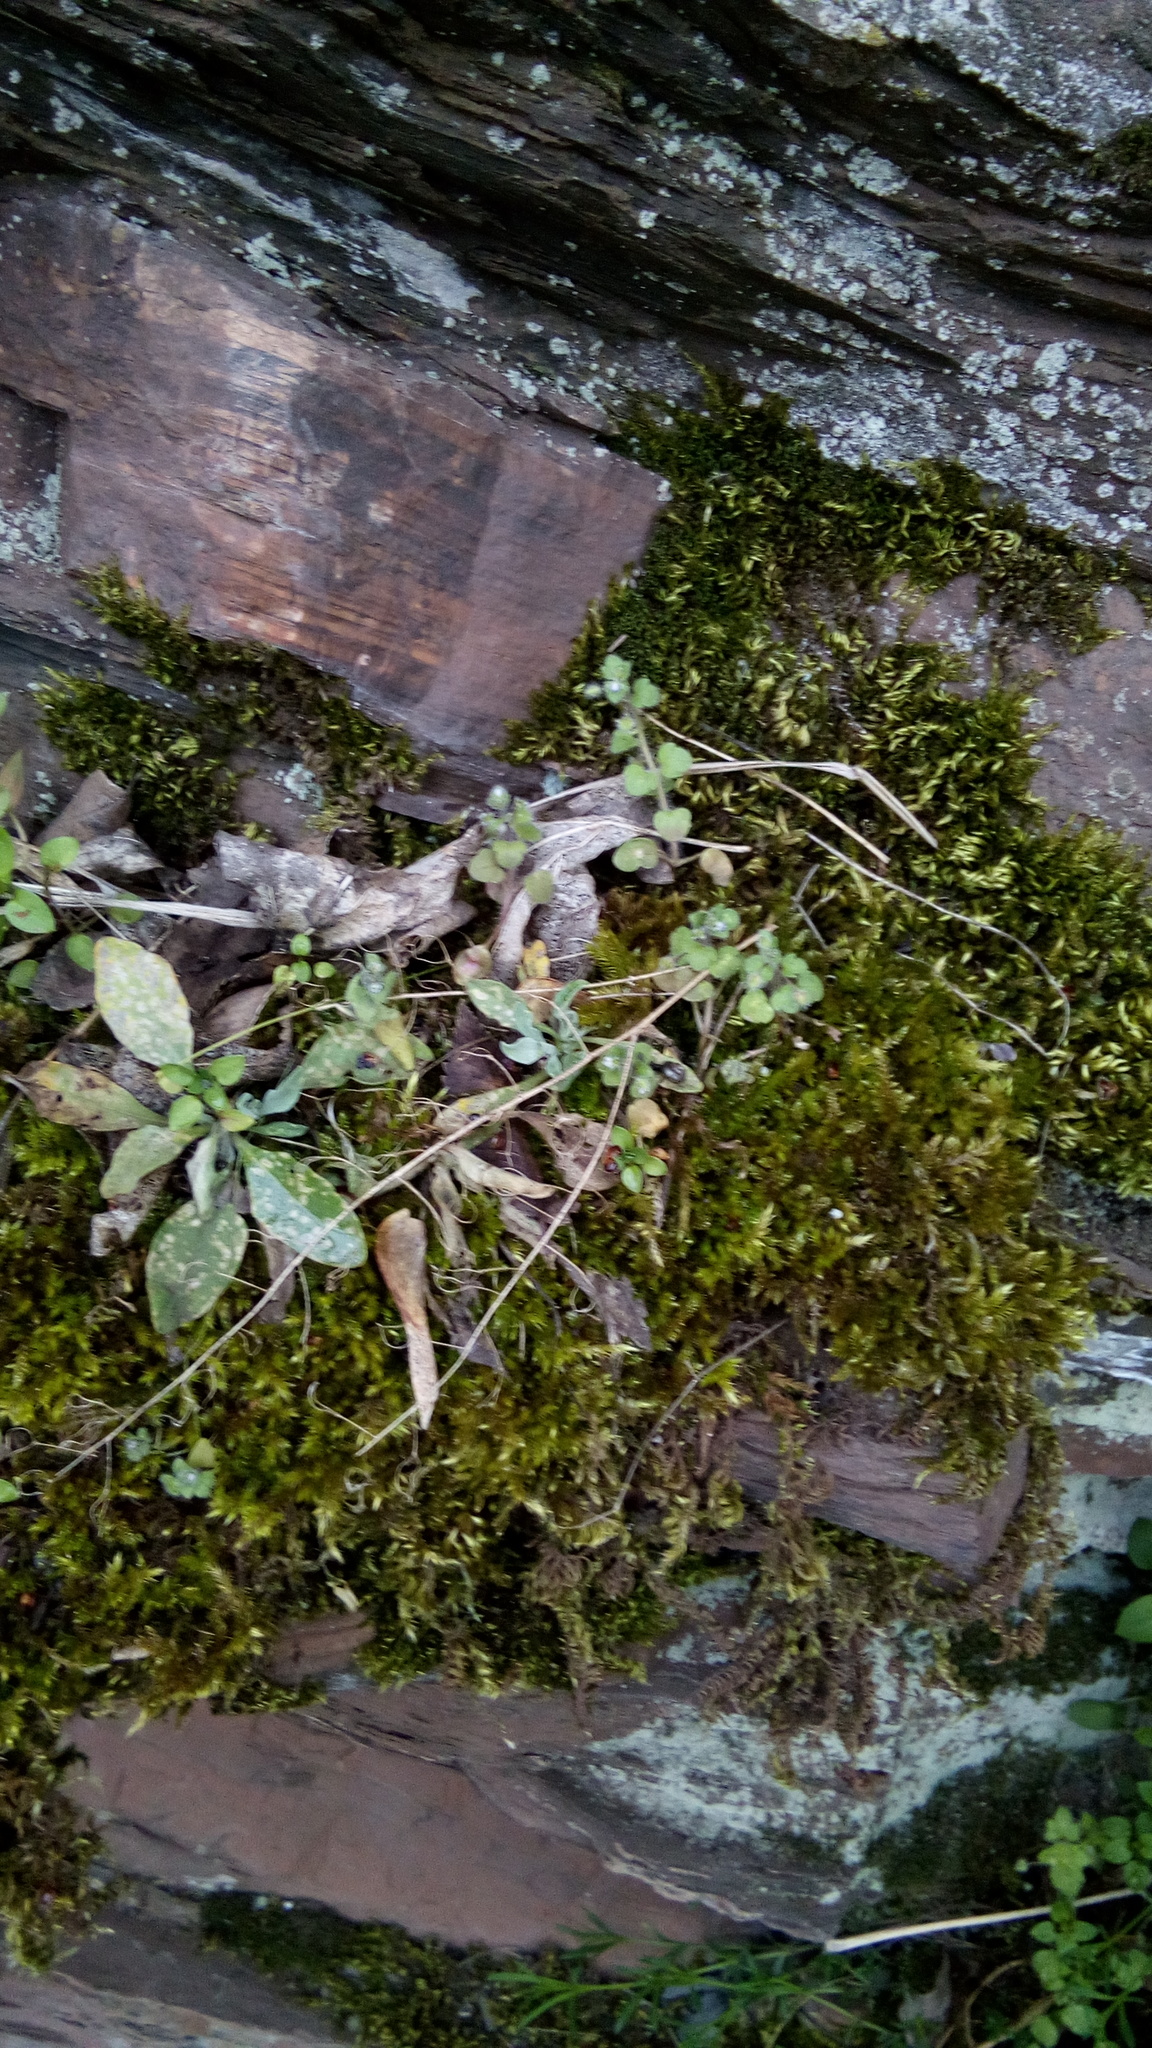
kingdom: Plantae
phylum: Tracheophyta
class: Magnoliopsida
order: Lamiales
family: Plantaginaceae
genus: Veronica
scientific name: Veronica hederifolia
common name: Ivy-leaved speedwell
